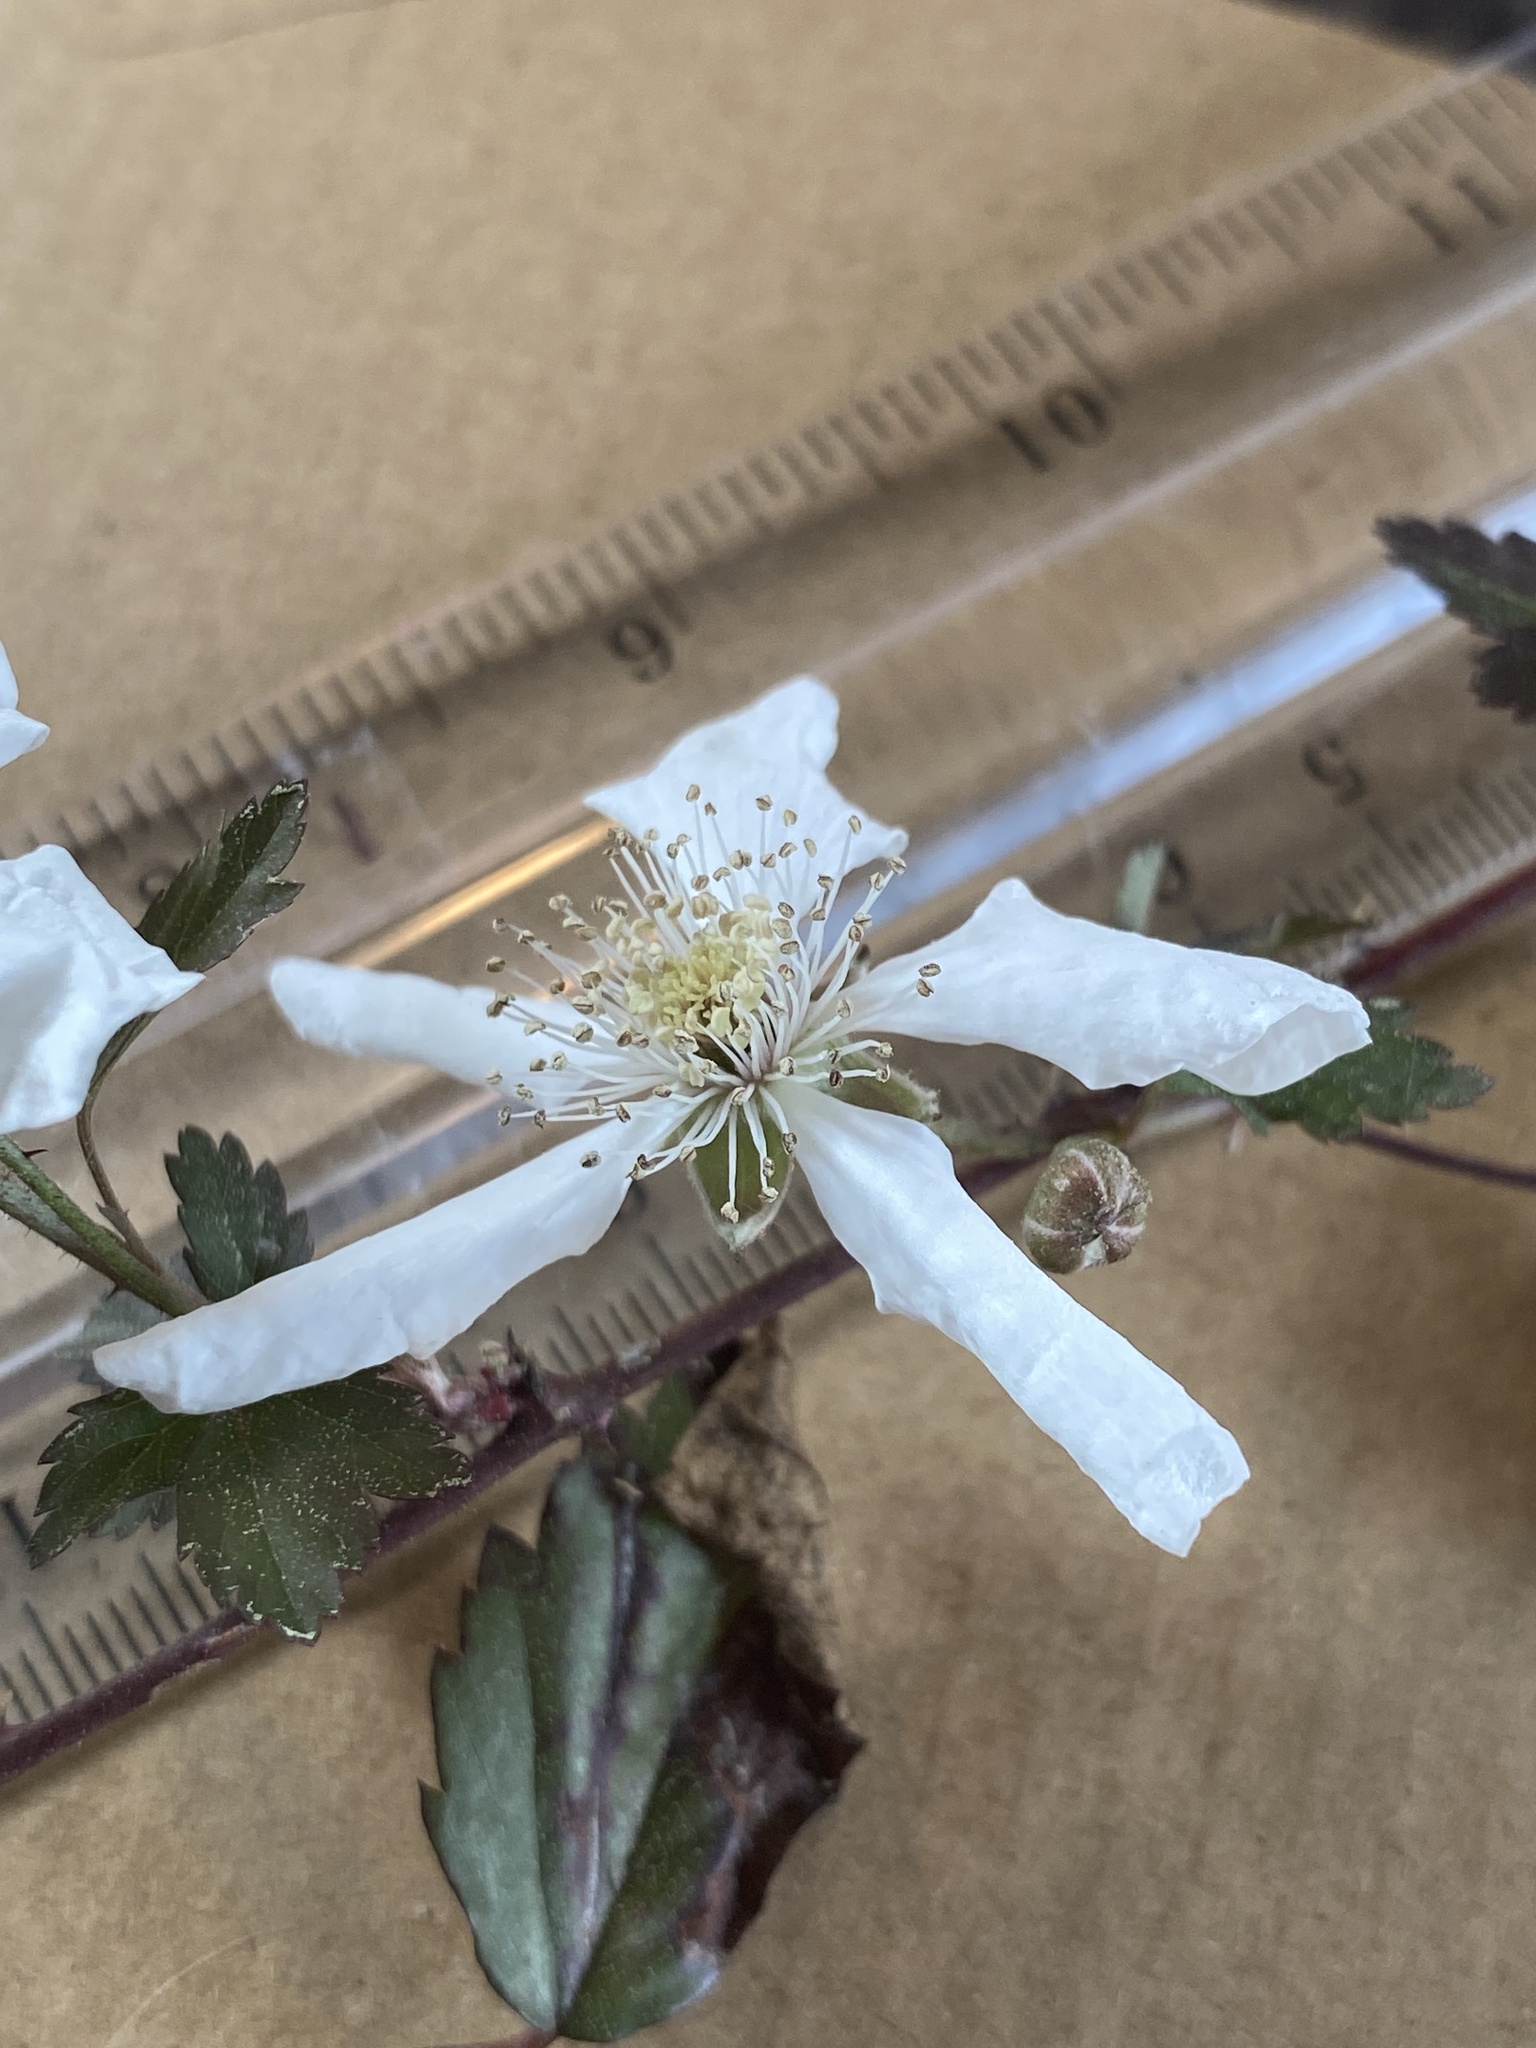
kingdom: Plantae
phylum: Tracheophyta
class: Magnoliopsida
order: Rosales
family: Rosaceae
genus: Rubus
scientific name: Rubus trivialis
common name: Southern dewberry
